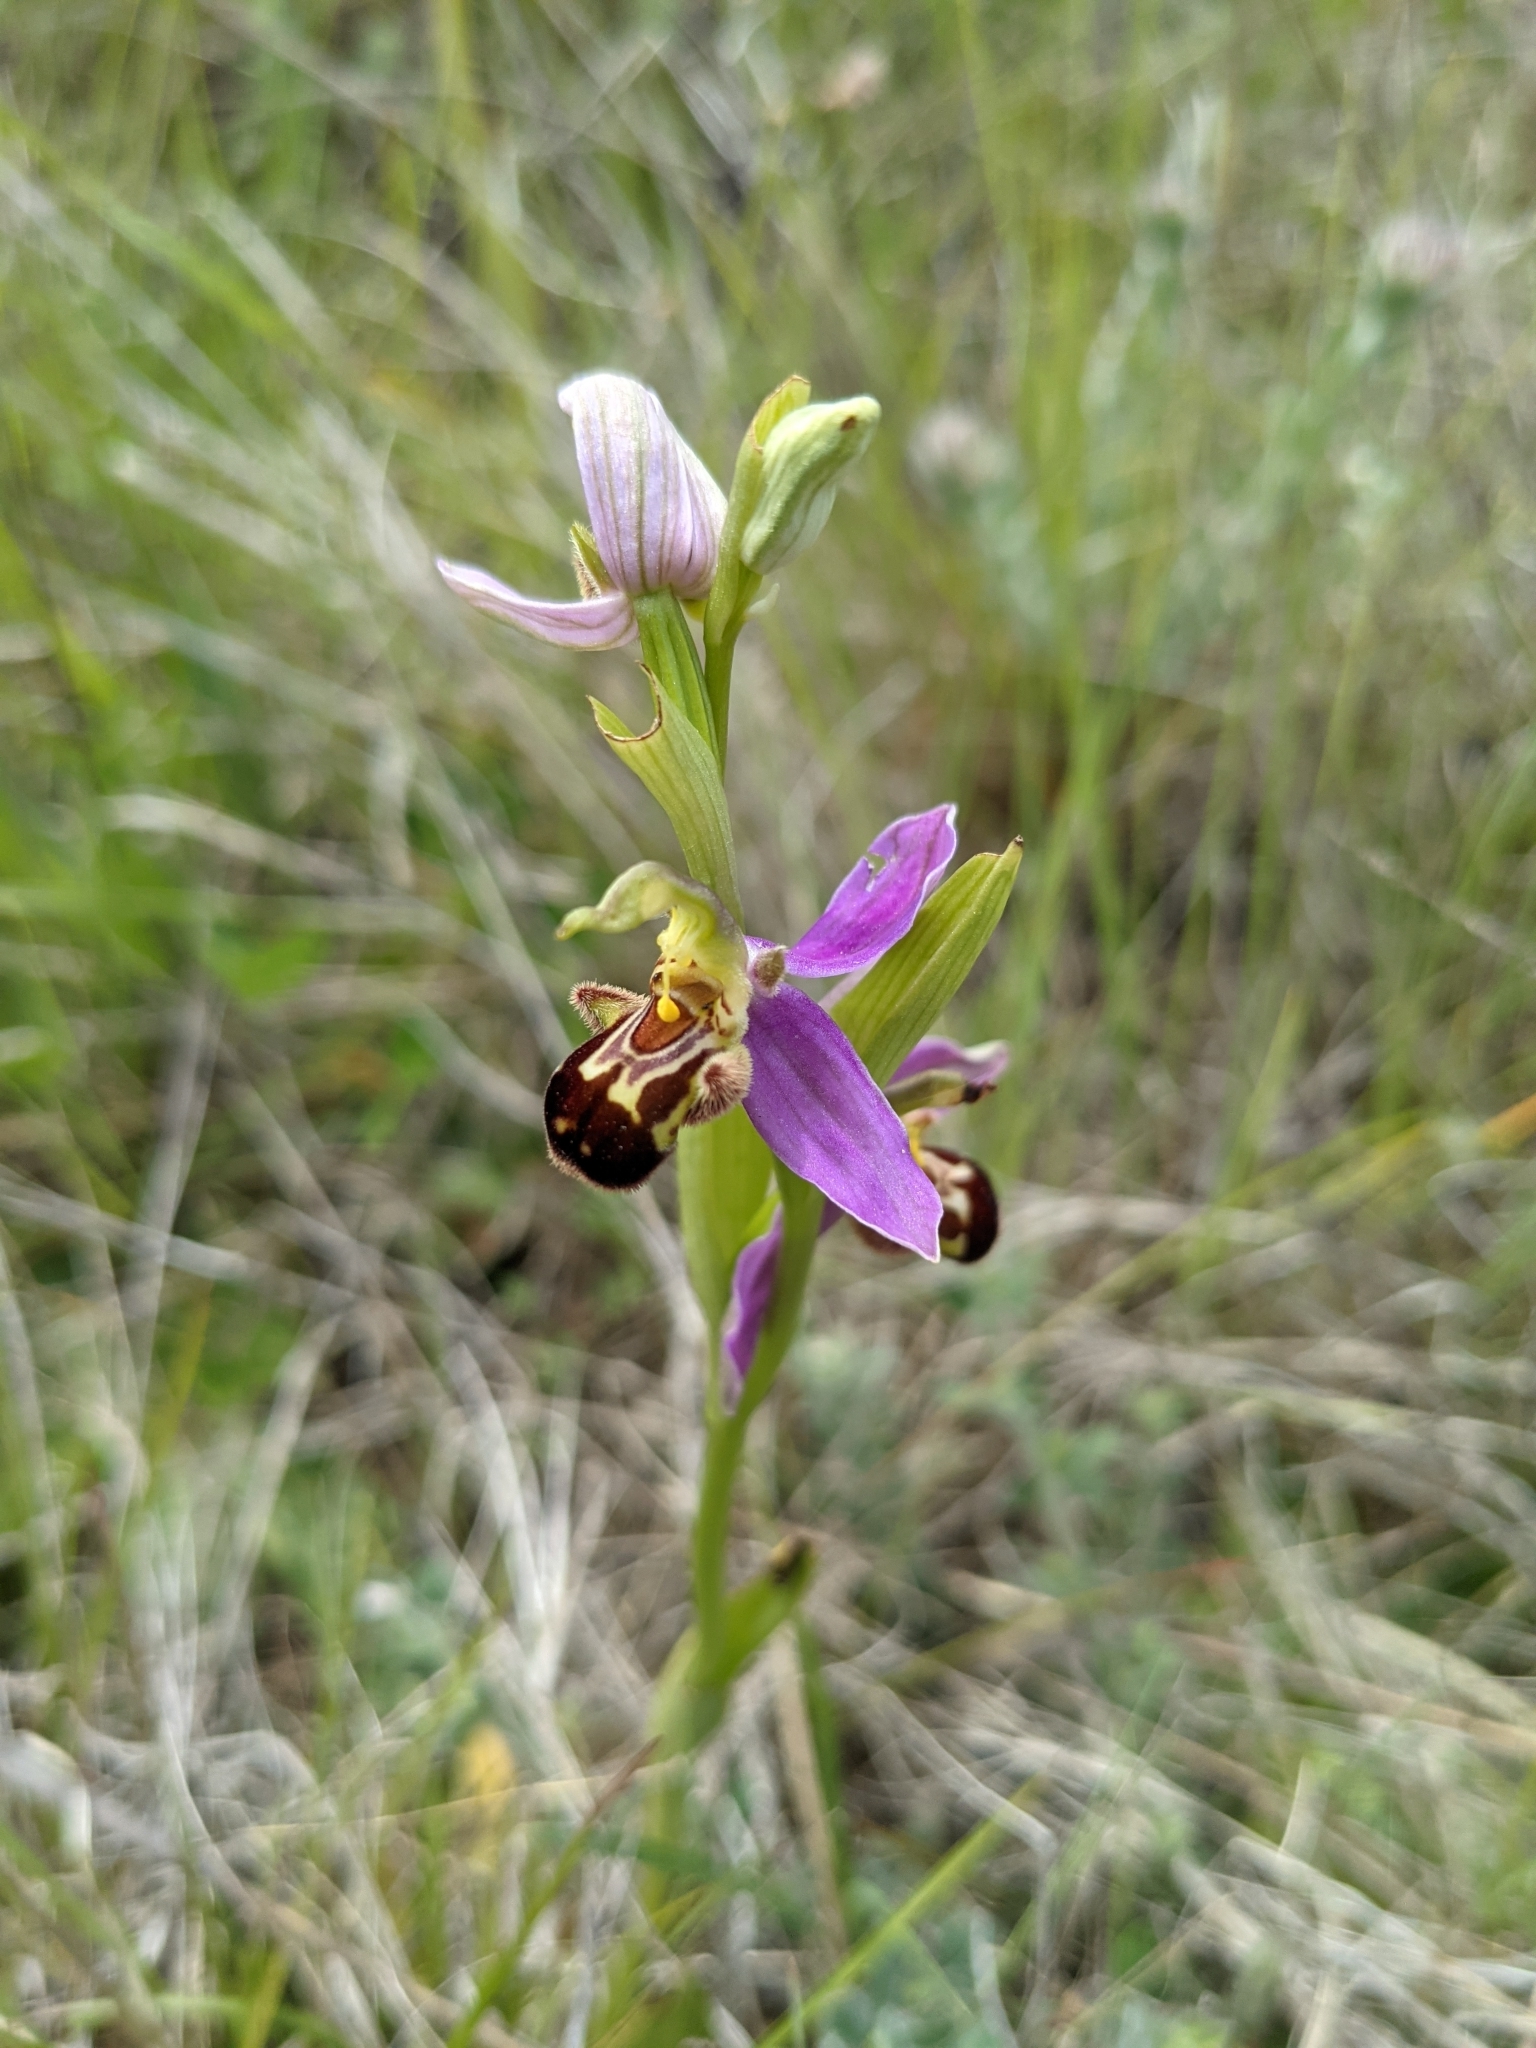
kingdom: Plantae
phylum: Tracheophyta
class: Liliopsida
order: Asparagales
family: Orchidaceae
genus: Ophrys
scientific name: Ophrys apifera
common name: Bee orchid
